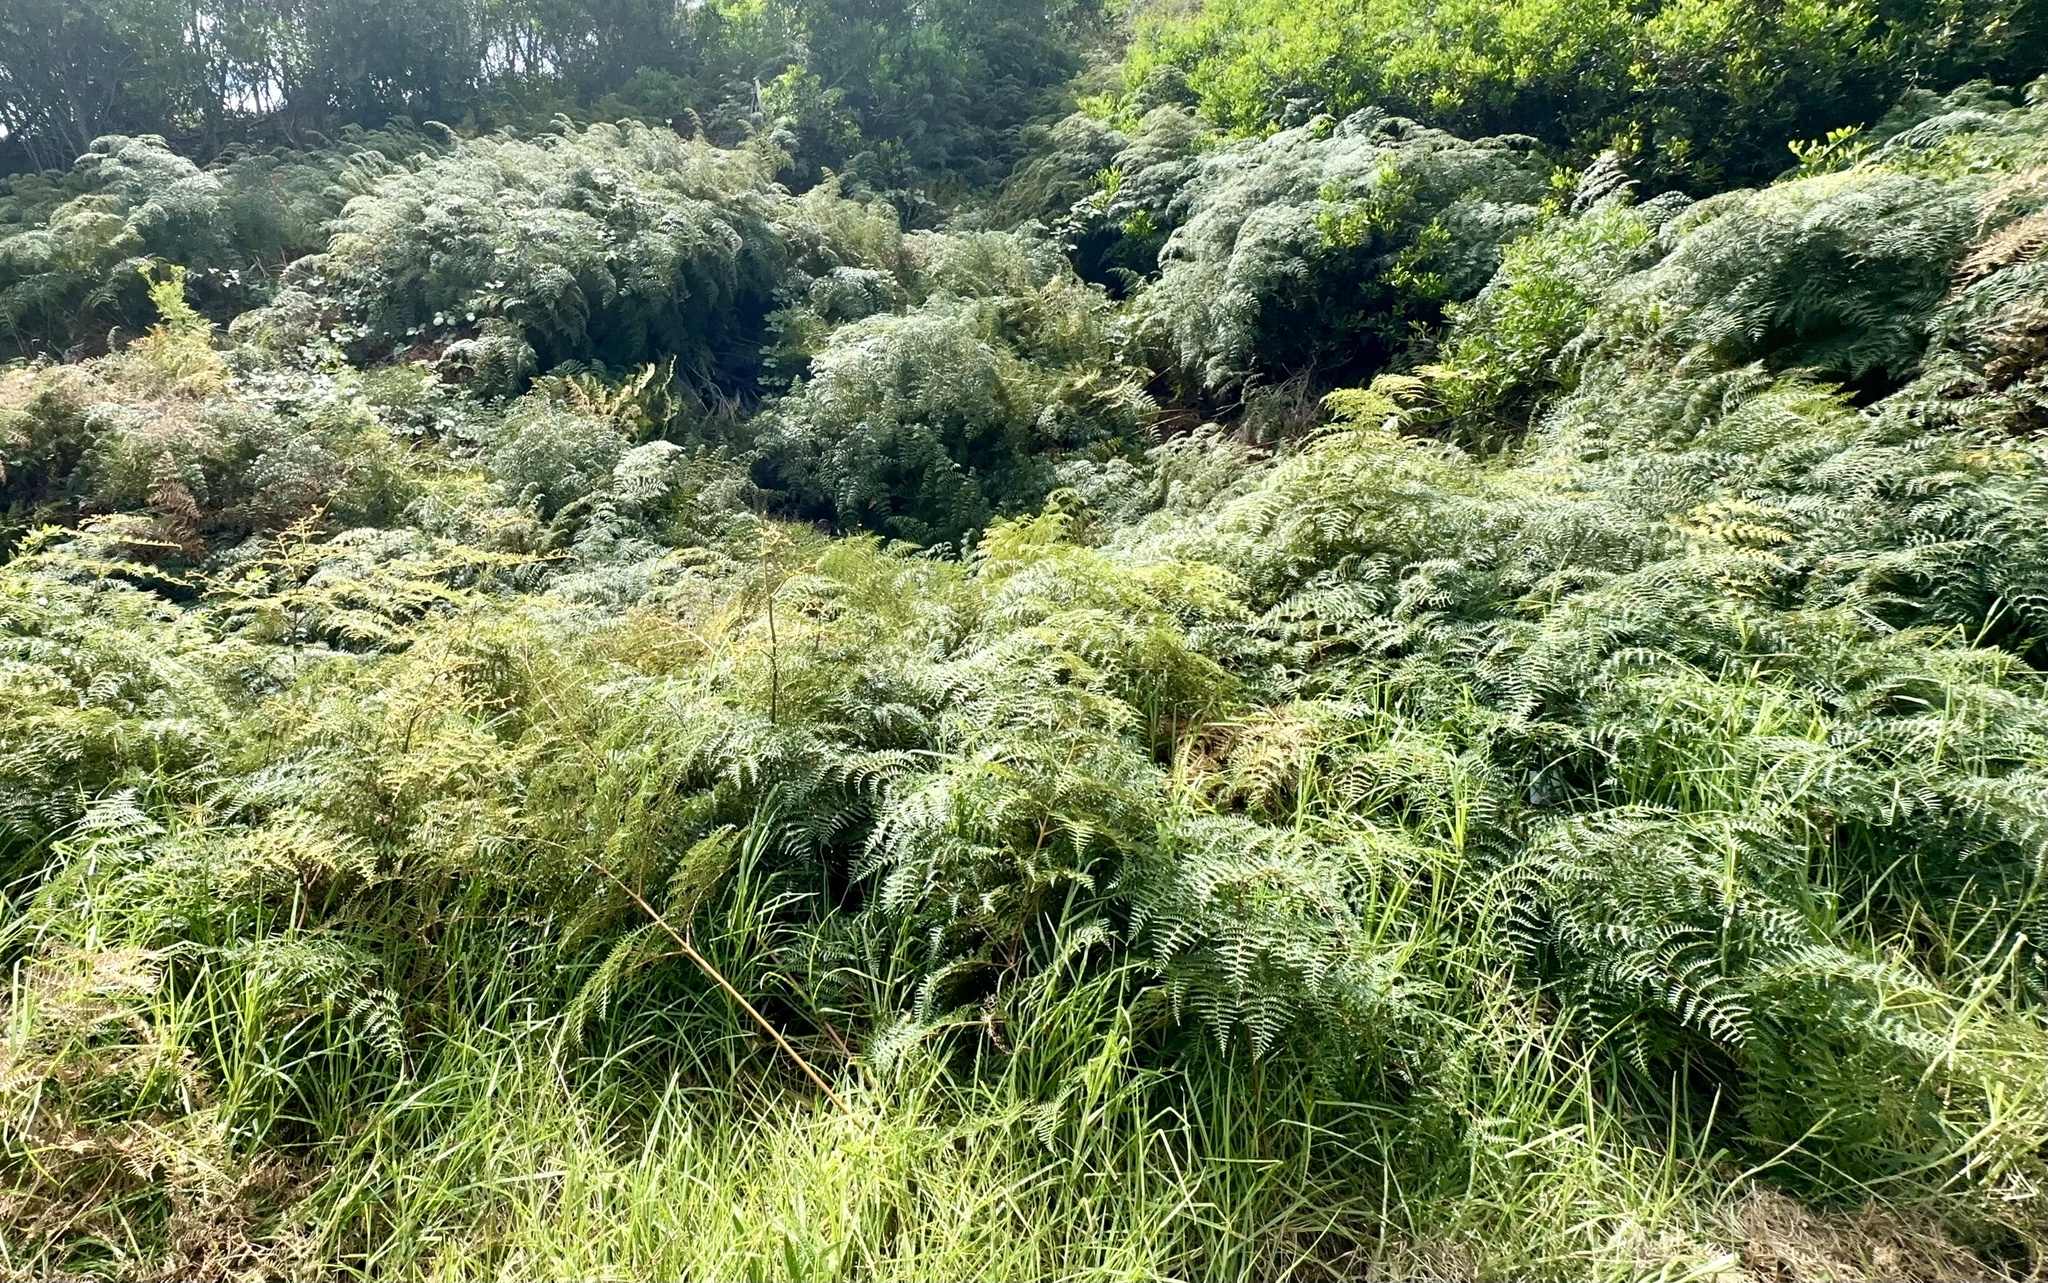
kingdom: Plantae
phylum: Tracheophyta
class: Polypodiopsida
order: Polypodiales
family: Dennstaedtiaceae
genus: Pteridium
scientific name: Pteridium esculentum
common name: Bracken fern
